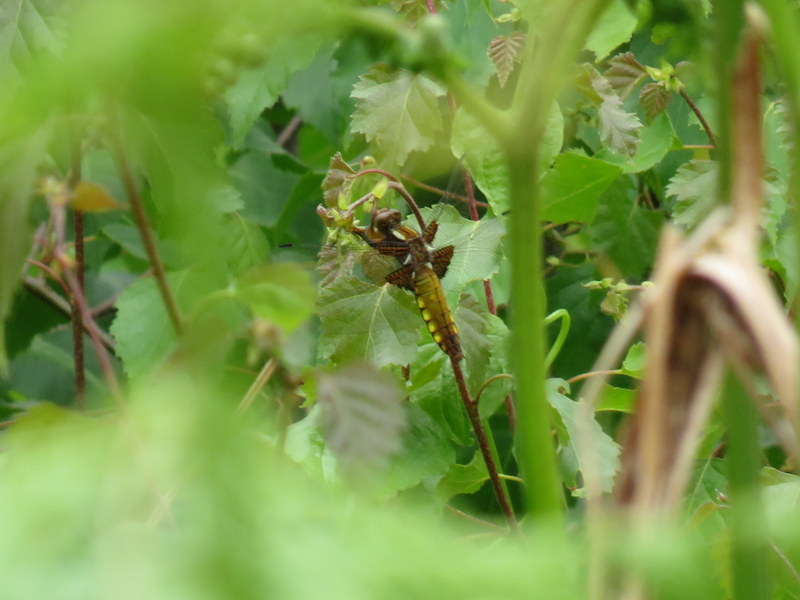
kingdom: Animalia
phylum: Arthropoda
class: Insecta
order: Odonata
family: Libellulidae
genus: Libellula
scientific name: Libellula depressa
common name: Broad-bodied chaser
